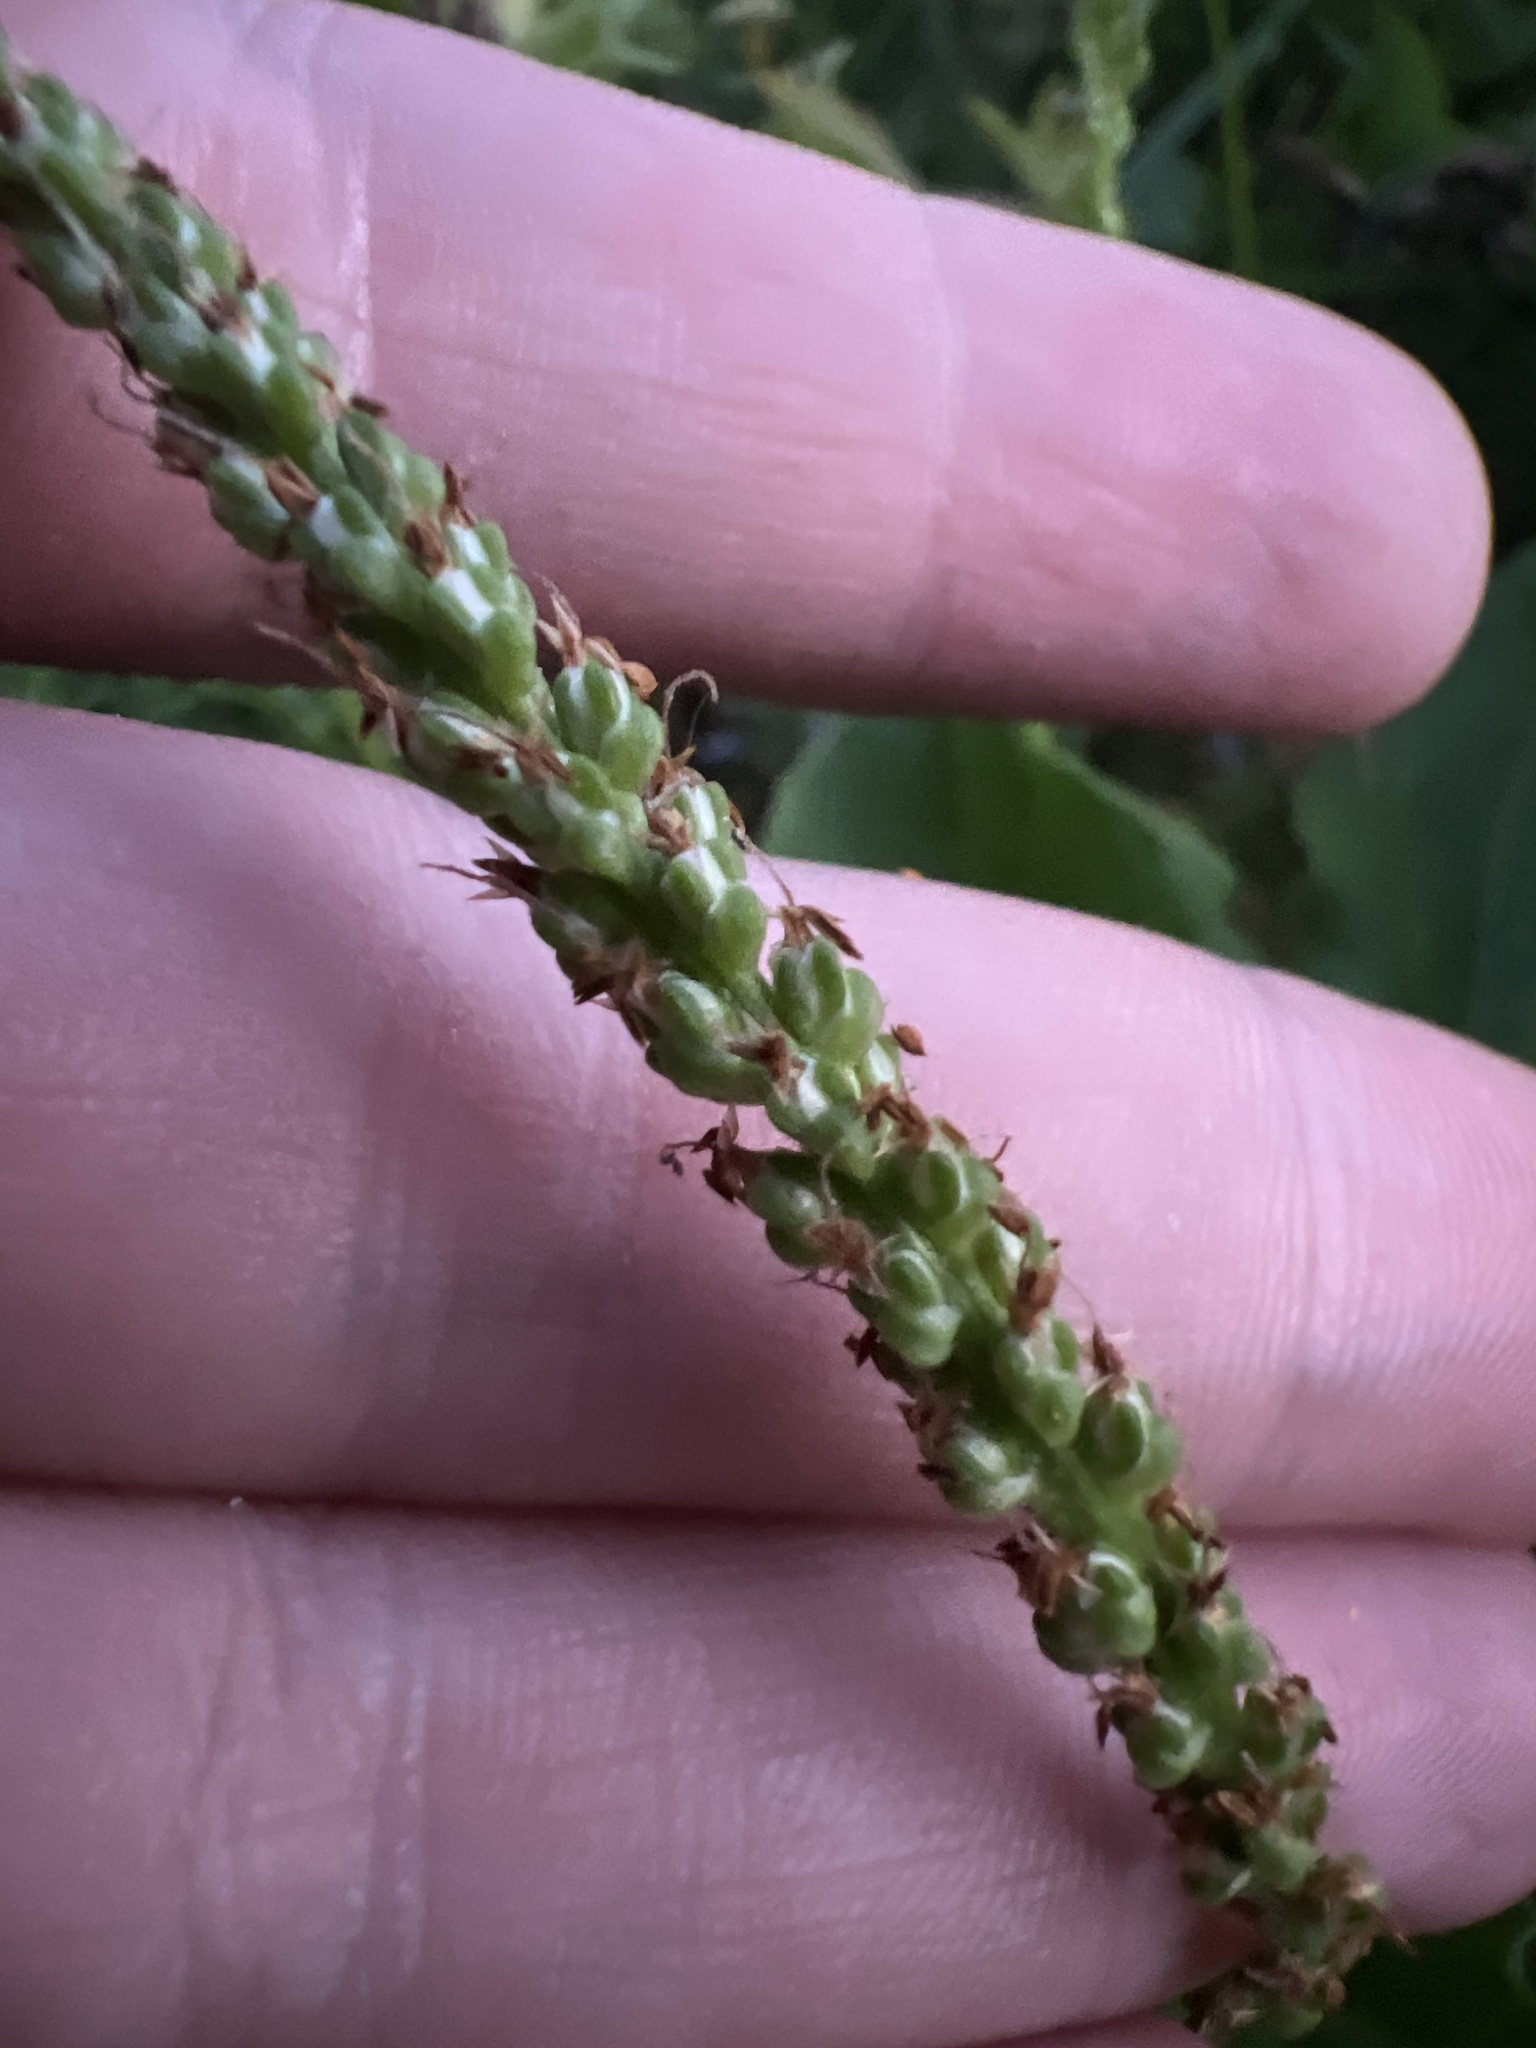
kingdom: Plantae
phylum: Tracheophyta
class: Magnoliopsida
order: Lamiales
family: Plantaginaceae
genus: Plantago
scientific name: Plantago major
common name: Common plantain
